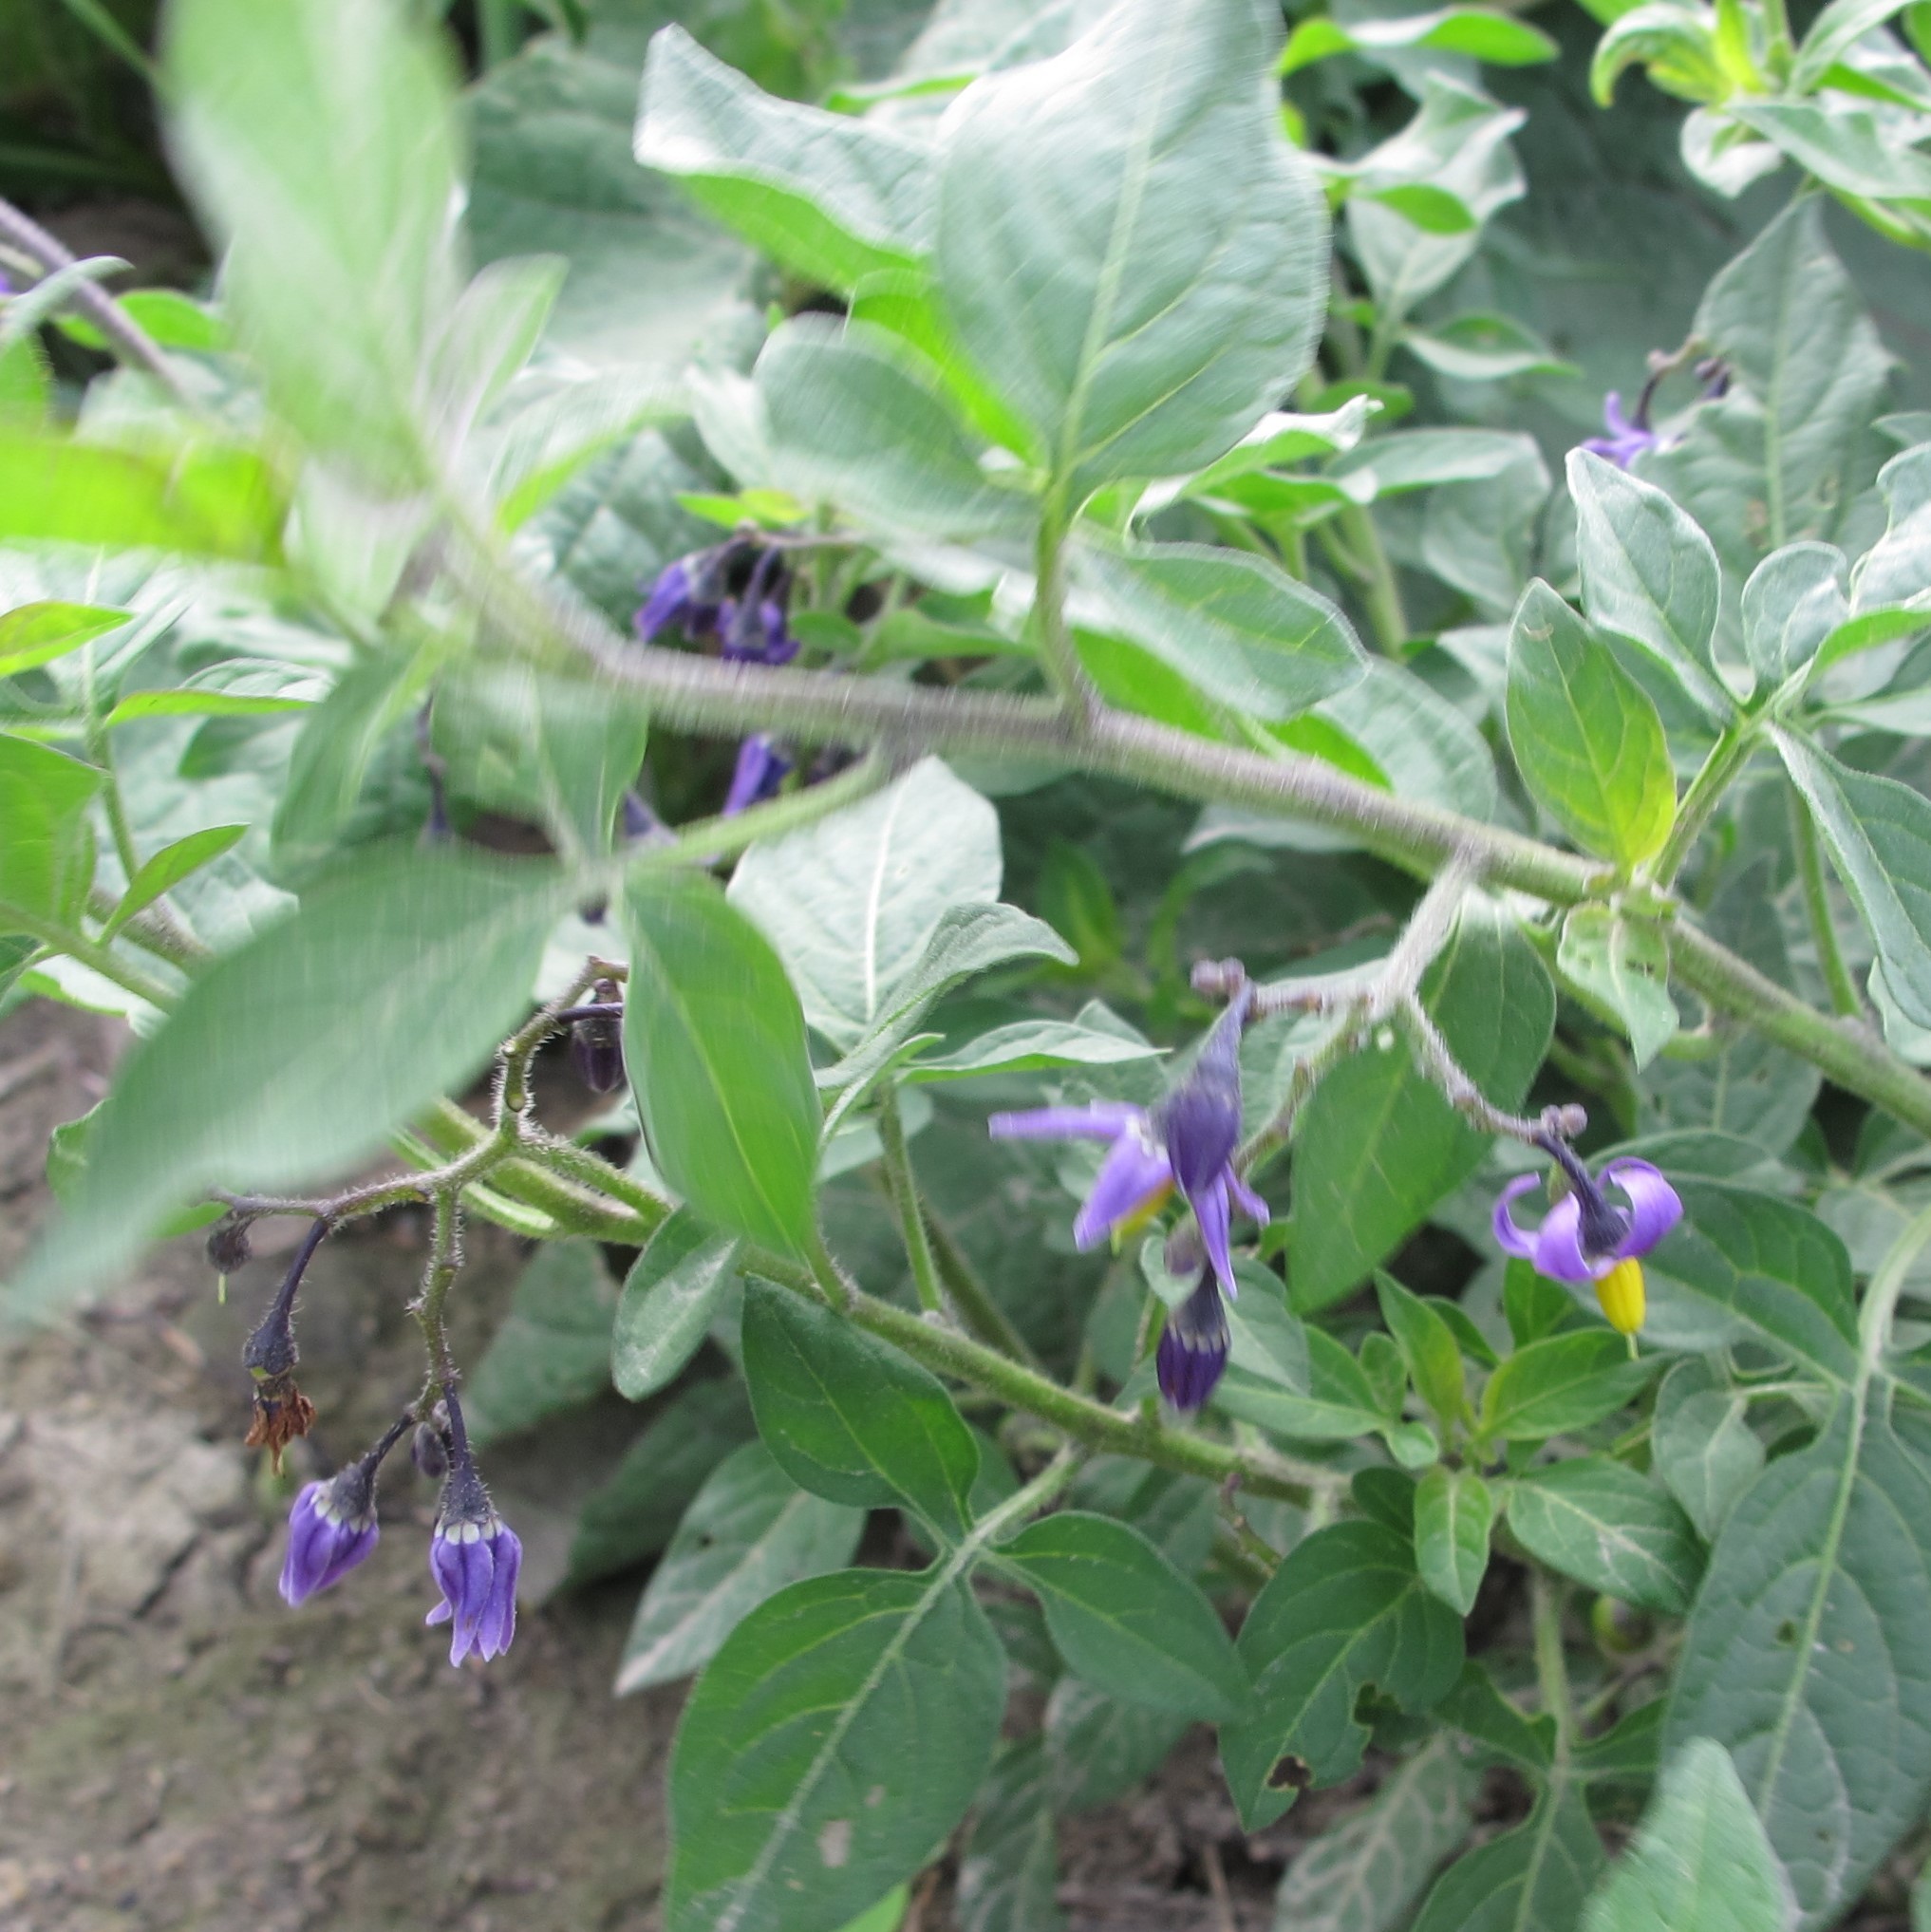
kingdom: Plantae
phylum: Tracheophyta
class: Magnoliopsida
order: Solanales
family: Solanaceae
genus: Solanum
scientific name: Solanum dulcamara
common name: Climbing nightshade
